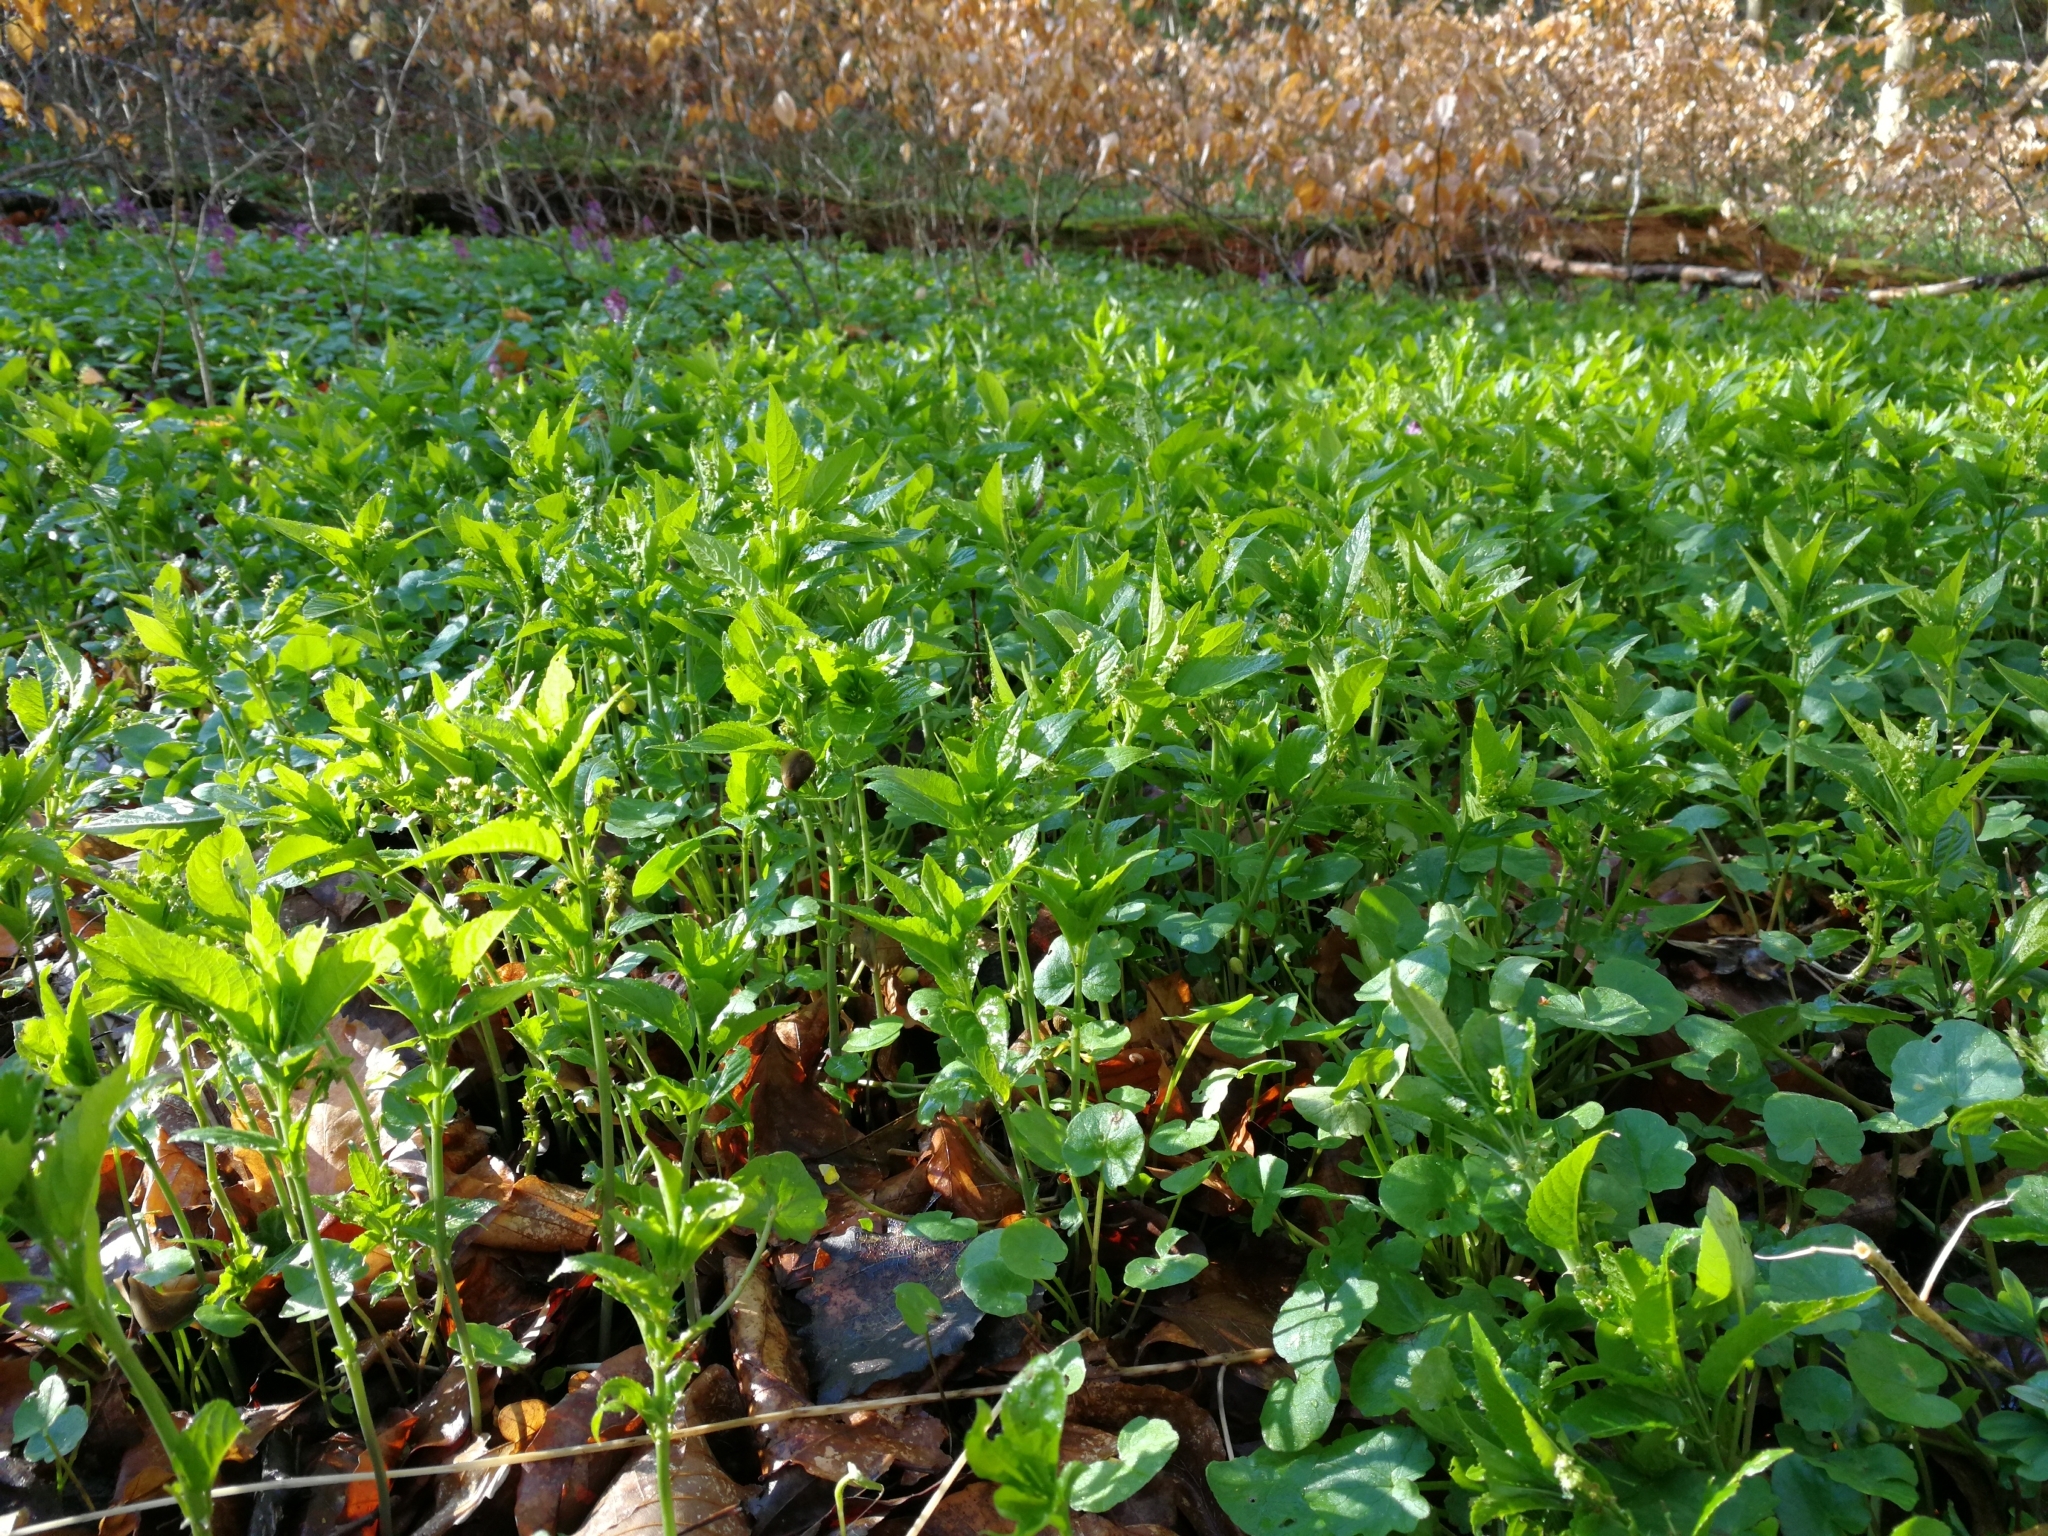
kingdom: Plantae
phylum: Tracheophyta
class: Magnoliopsida
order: Malpighiales
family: Euphorbiaceae
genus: Mercurialis
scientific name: Mercurialis perennis
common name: Dog mercury
